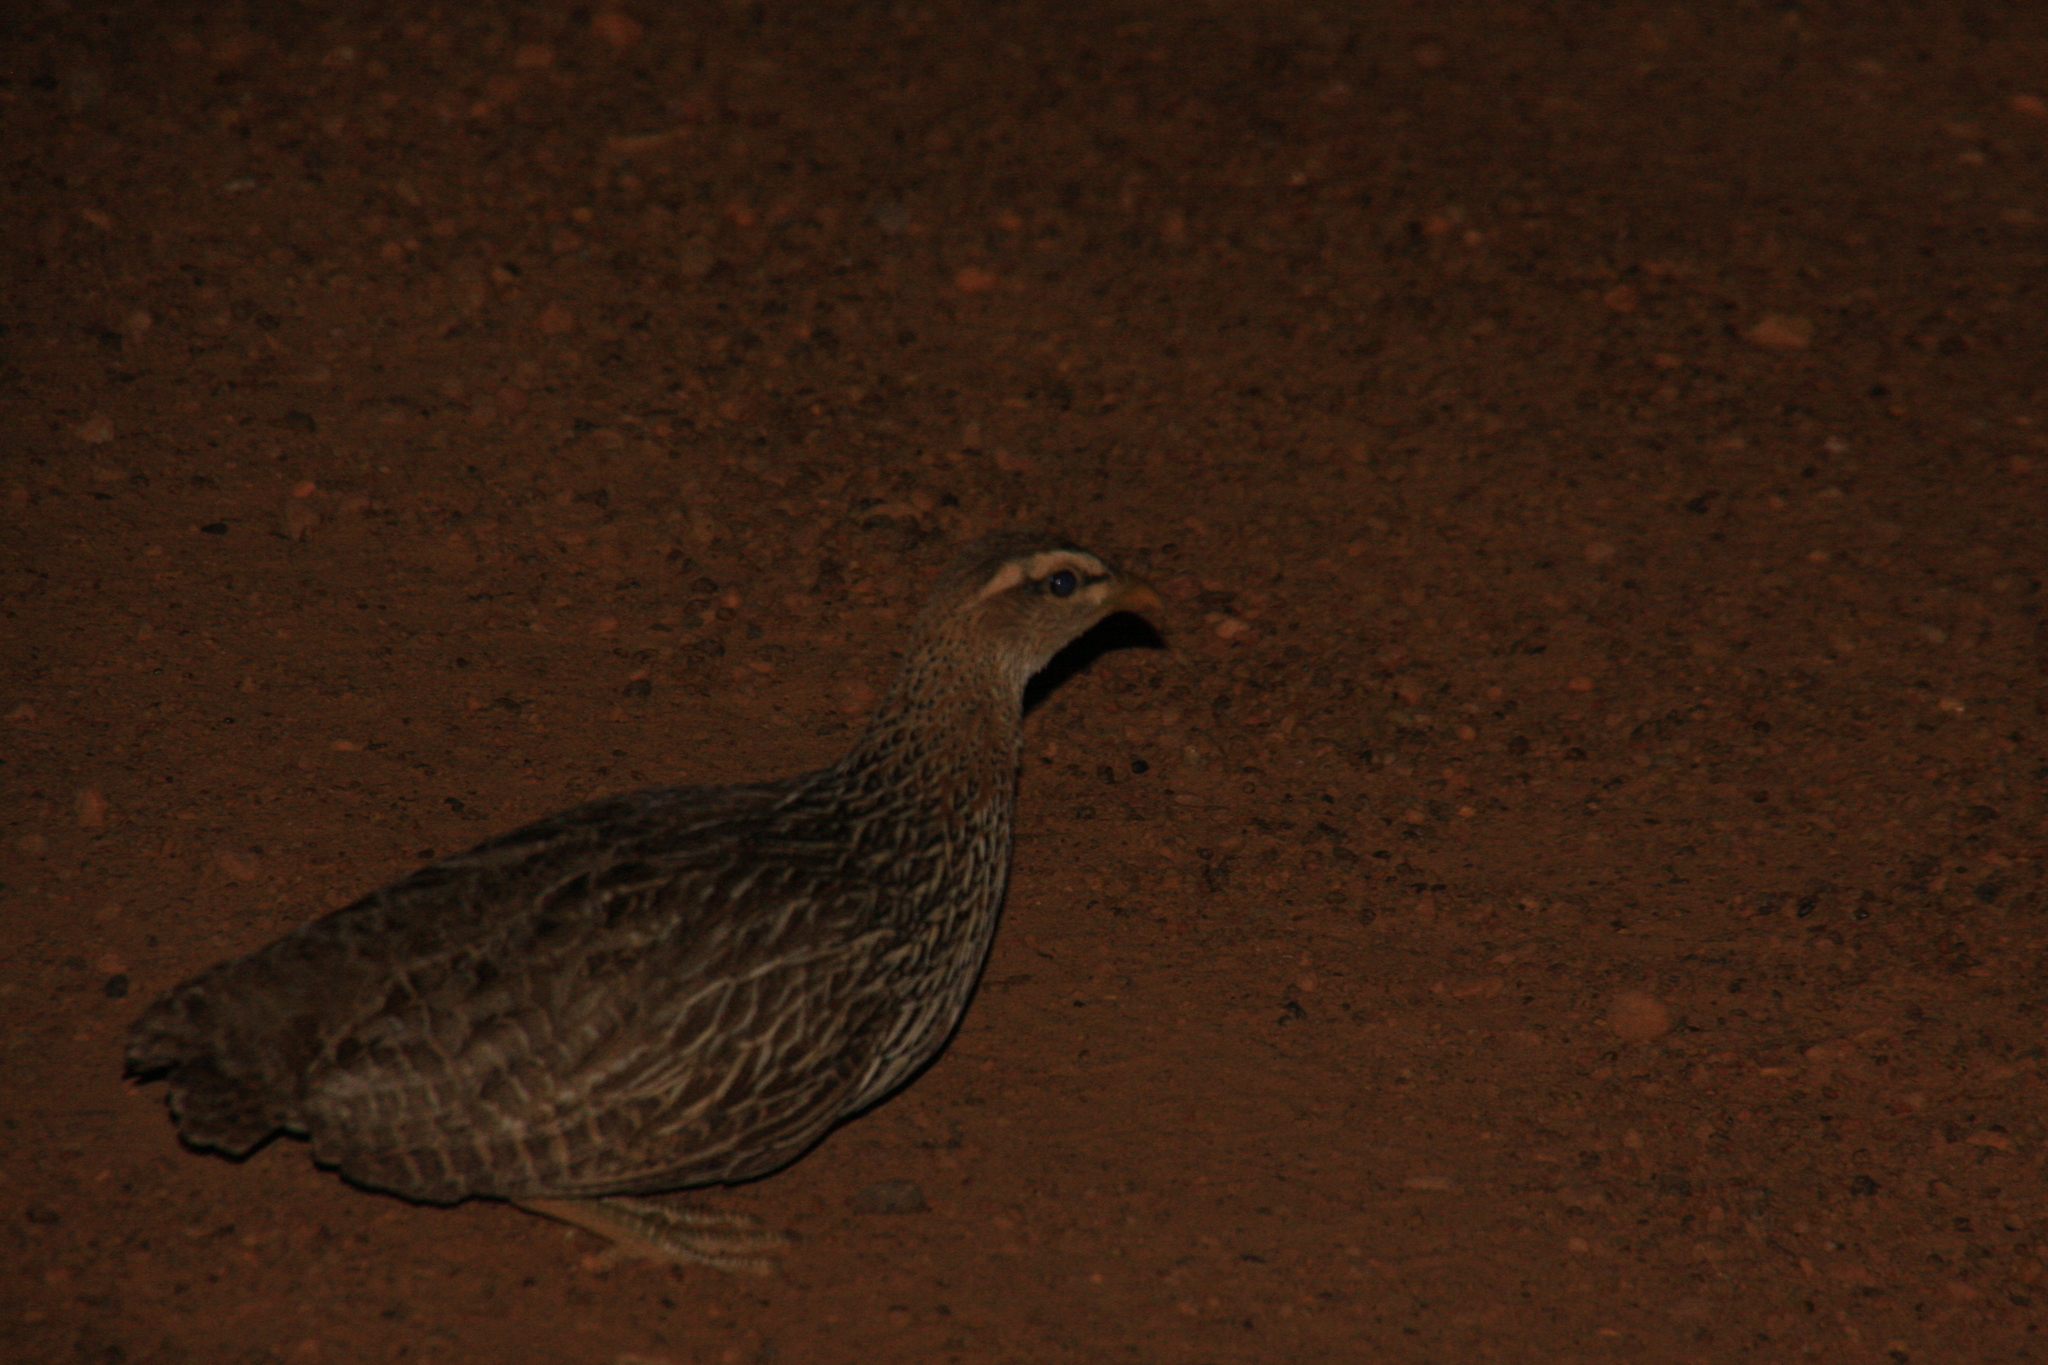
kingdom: Animalia
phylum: Chordata
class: Aves
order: Galliformes
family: Phasianidae
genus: Pternistis
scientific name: Pternistis bicalcaratus
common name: Double-spurred francolin
